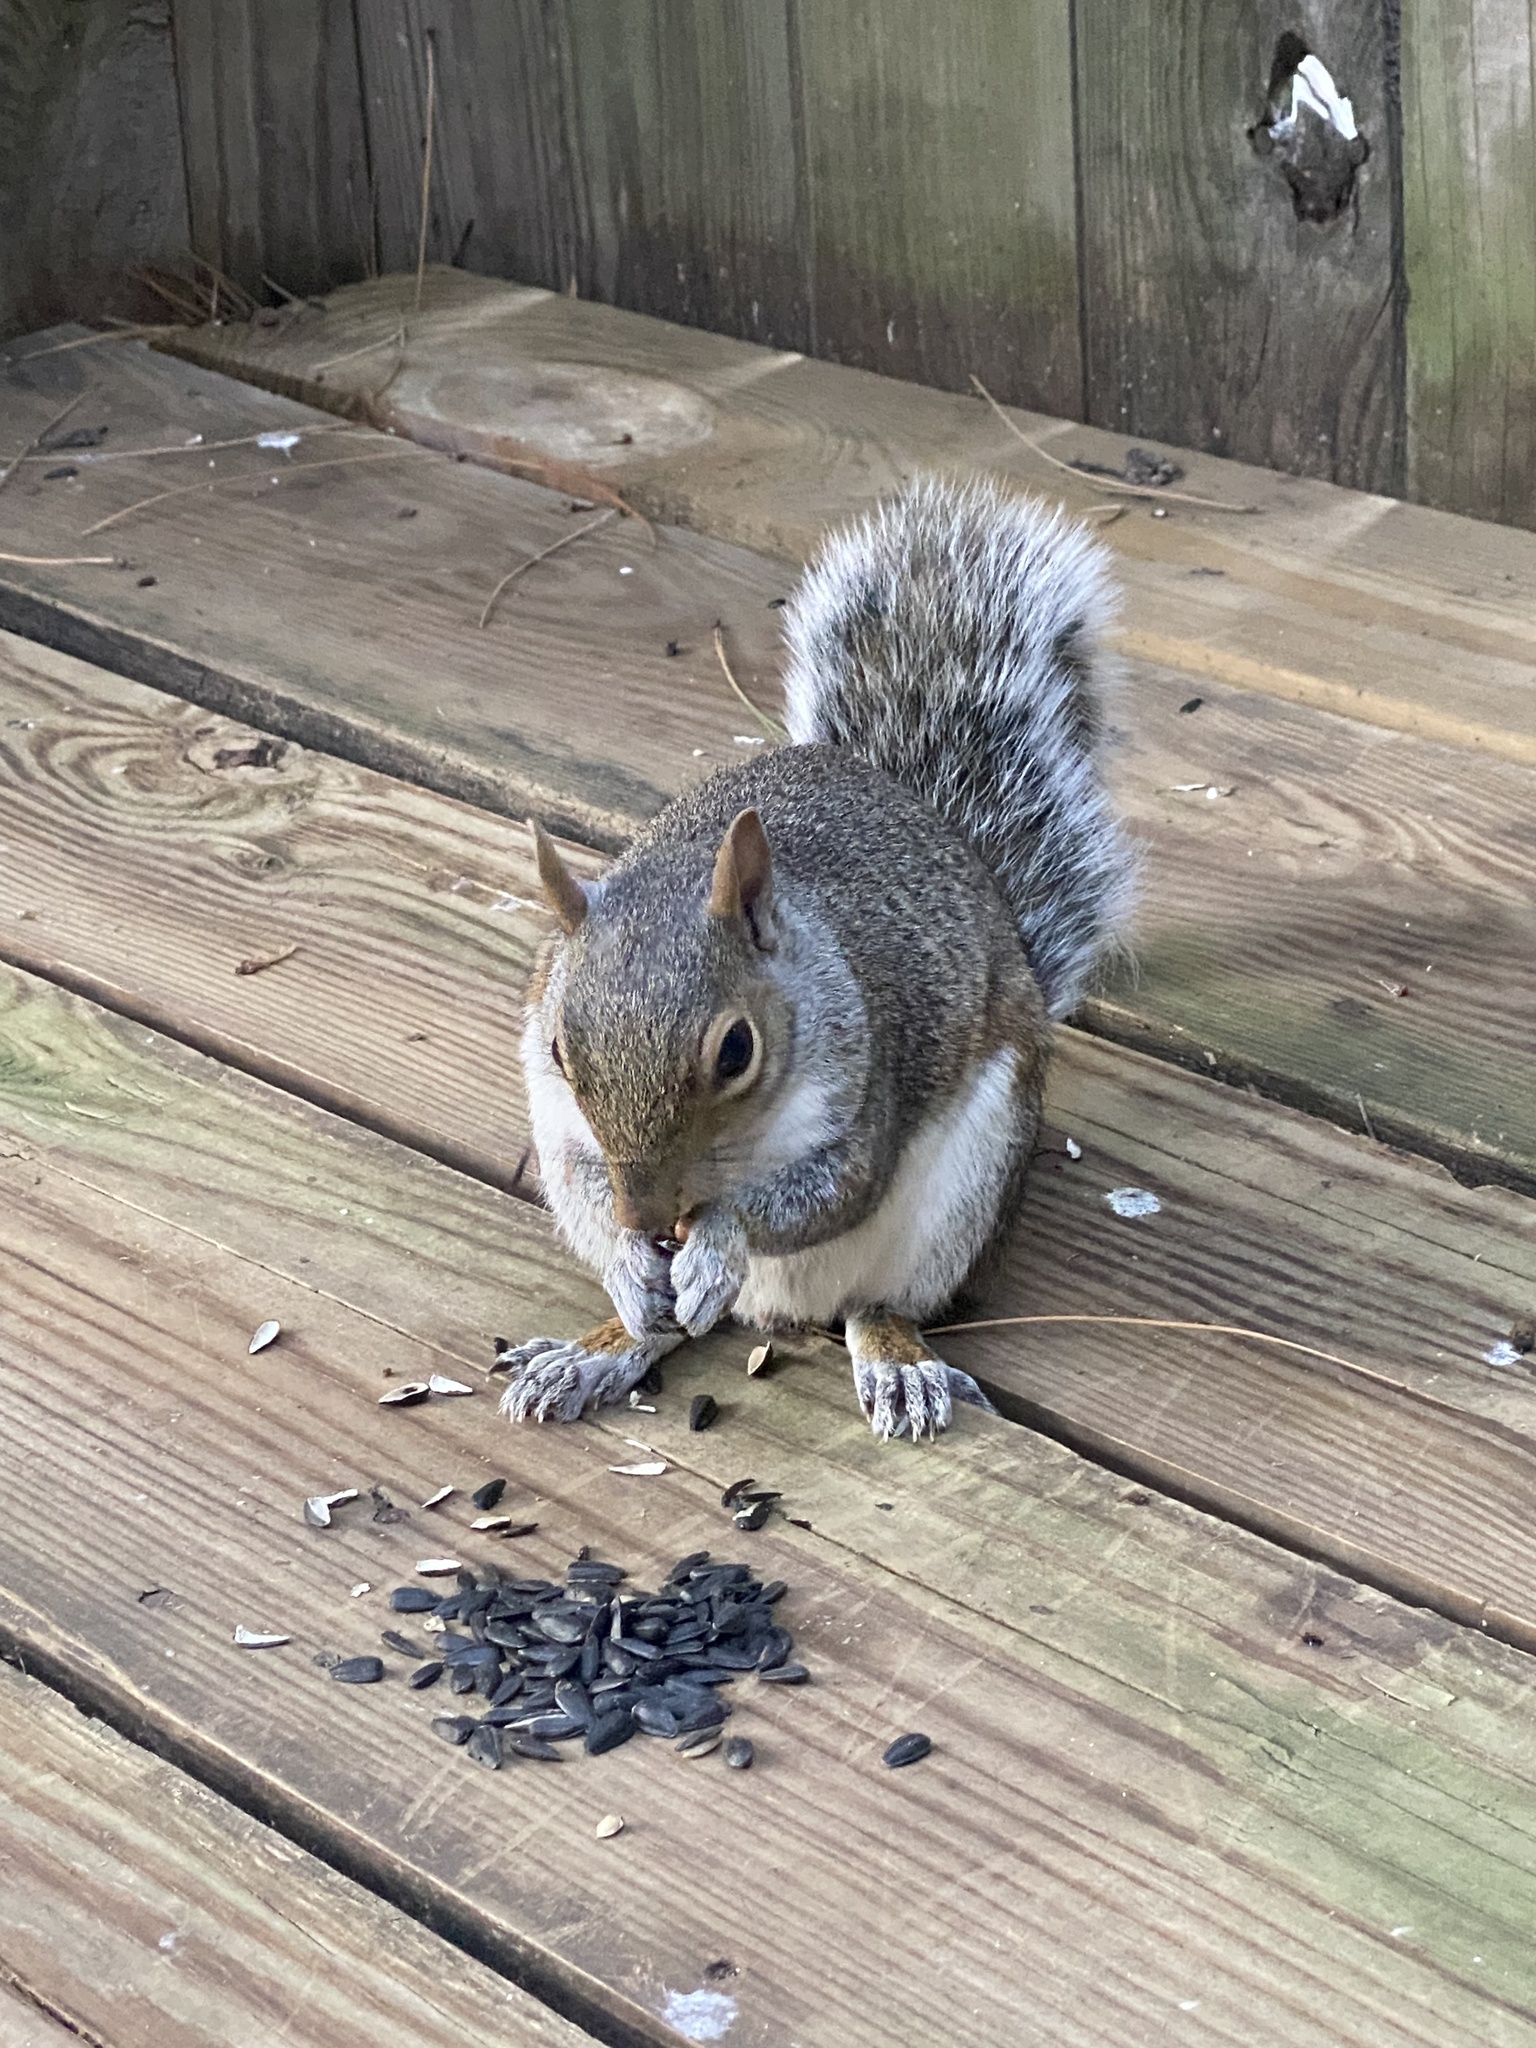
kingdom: Animalia
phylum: Chordata
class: Mammalia
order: Rodentia
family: Sciuridae
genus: Sciurus
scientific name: Sciurus carolinensis
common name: Eastern gray squirrel
